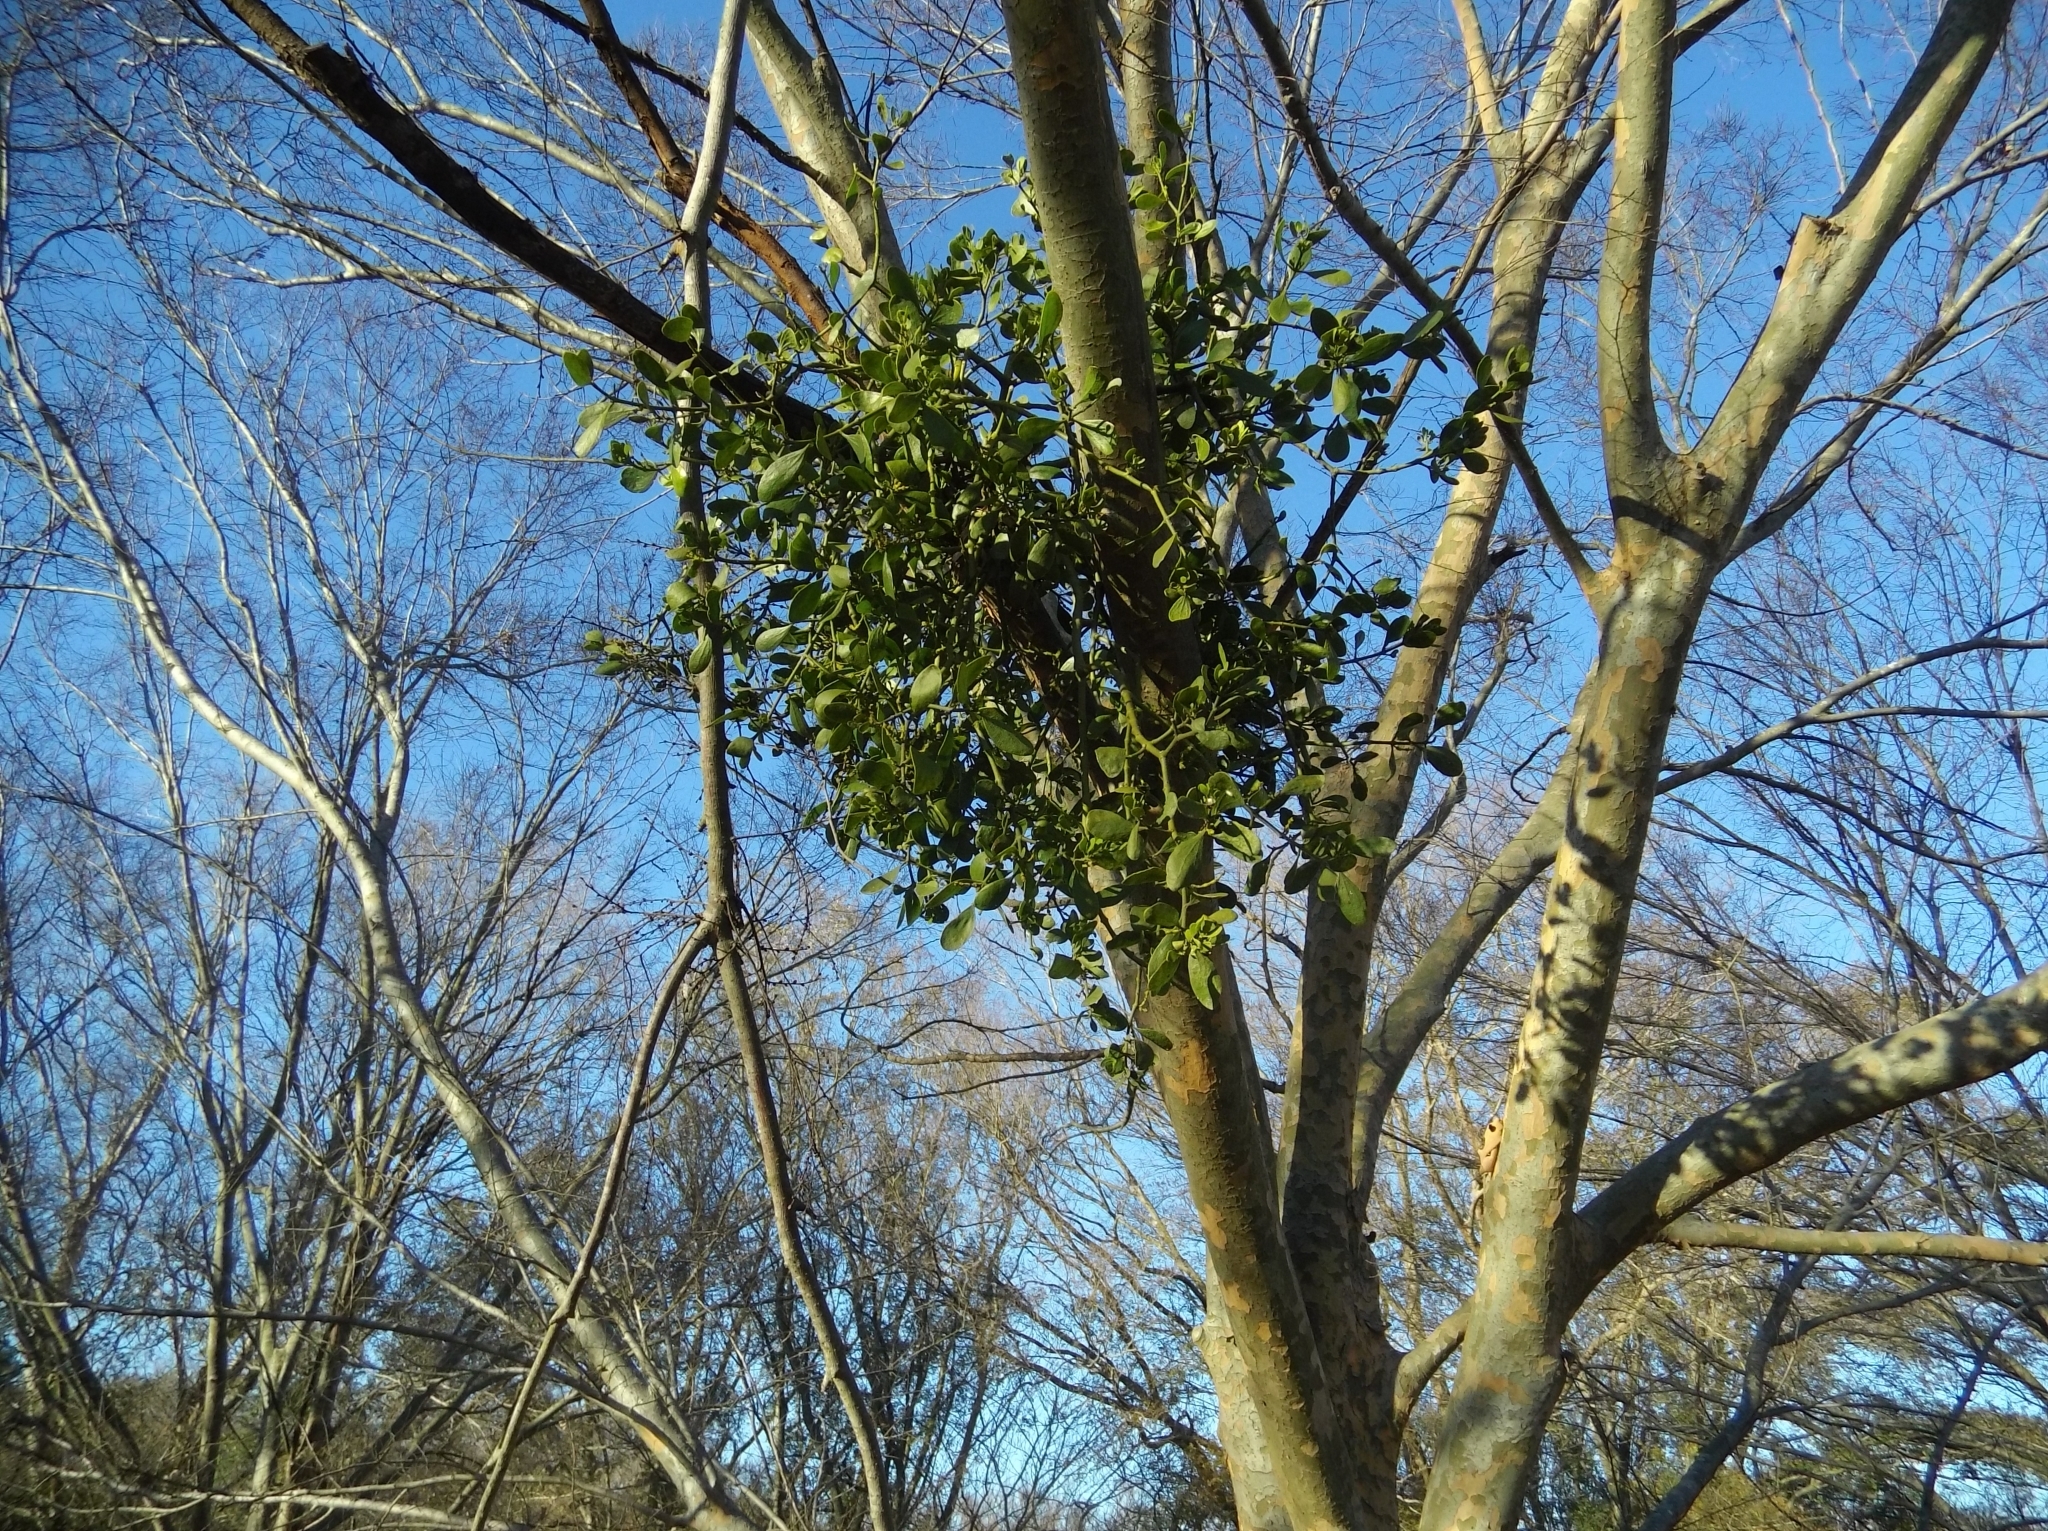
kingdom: Plantae
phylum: Tracheophyta
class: Magnoliopsida
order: Santalales
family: Viscaceae
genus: Phoradendron
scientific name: Phoradendron leucarpum
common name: Pacific mistletoe
